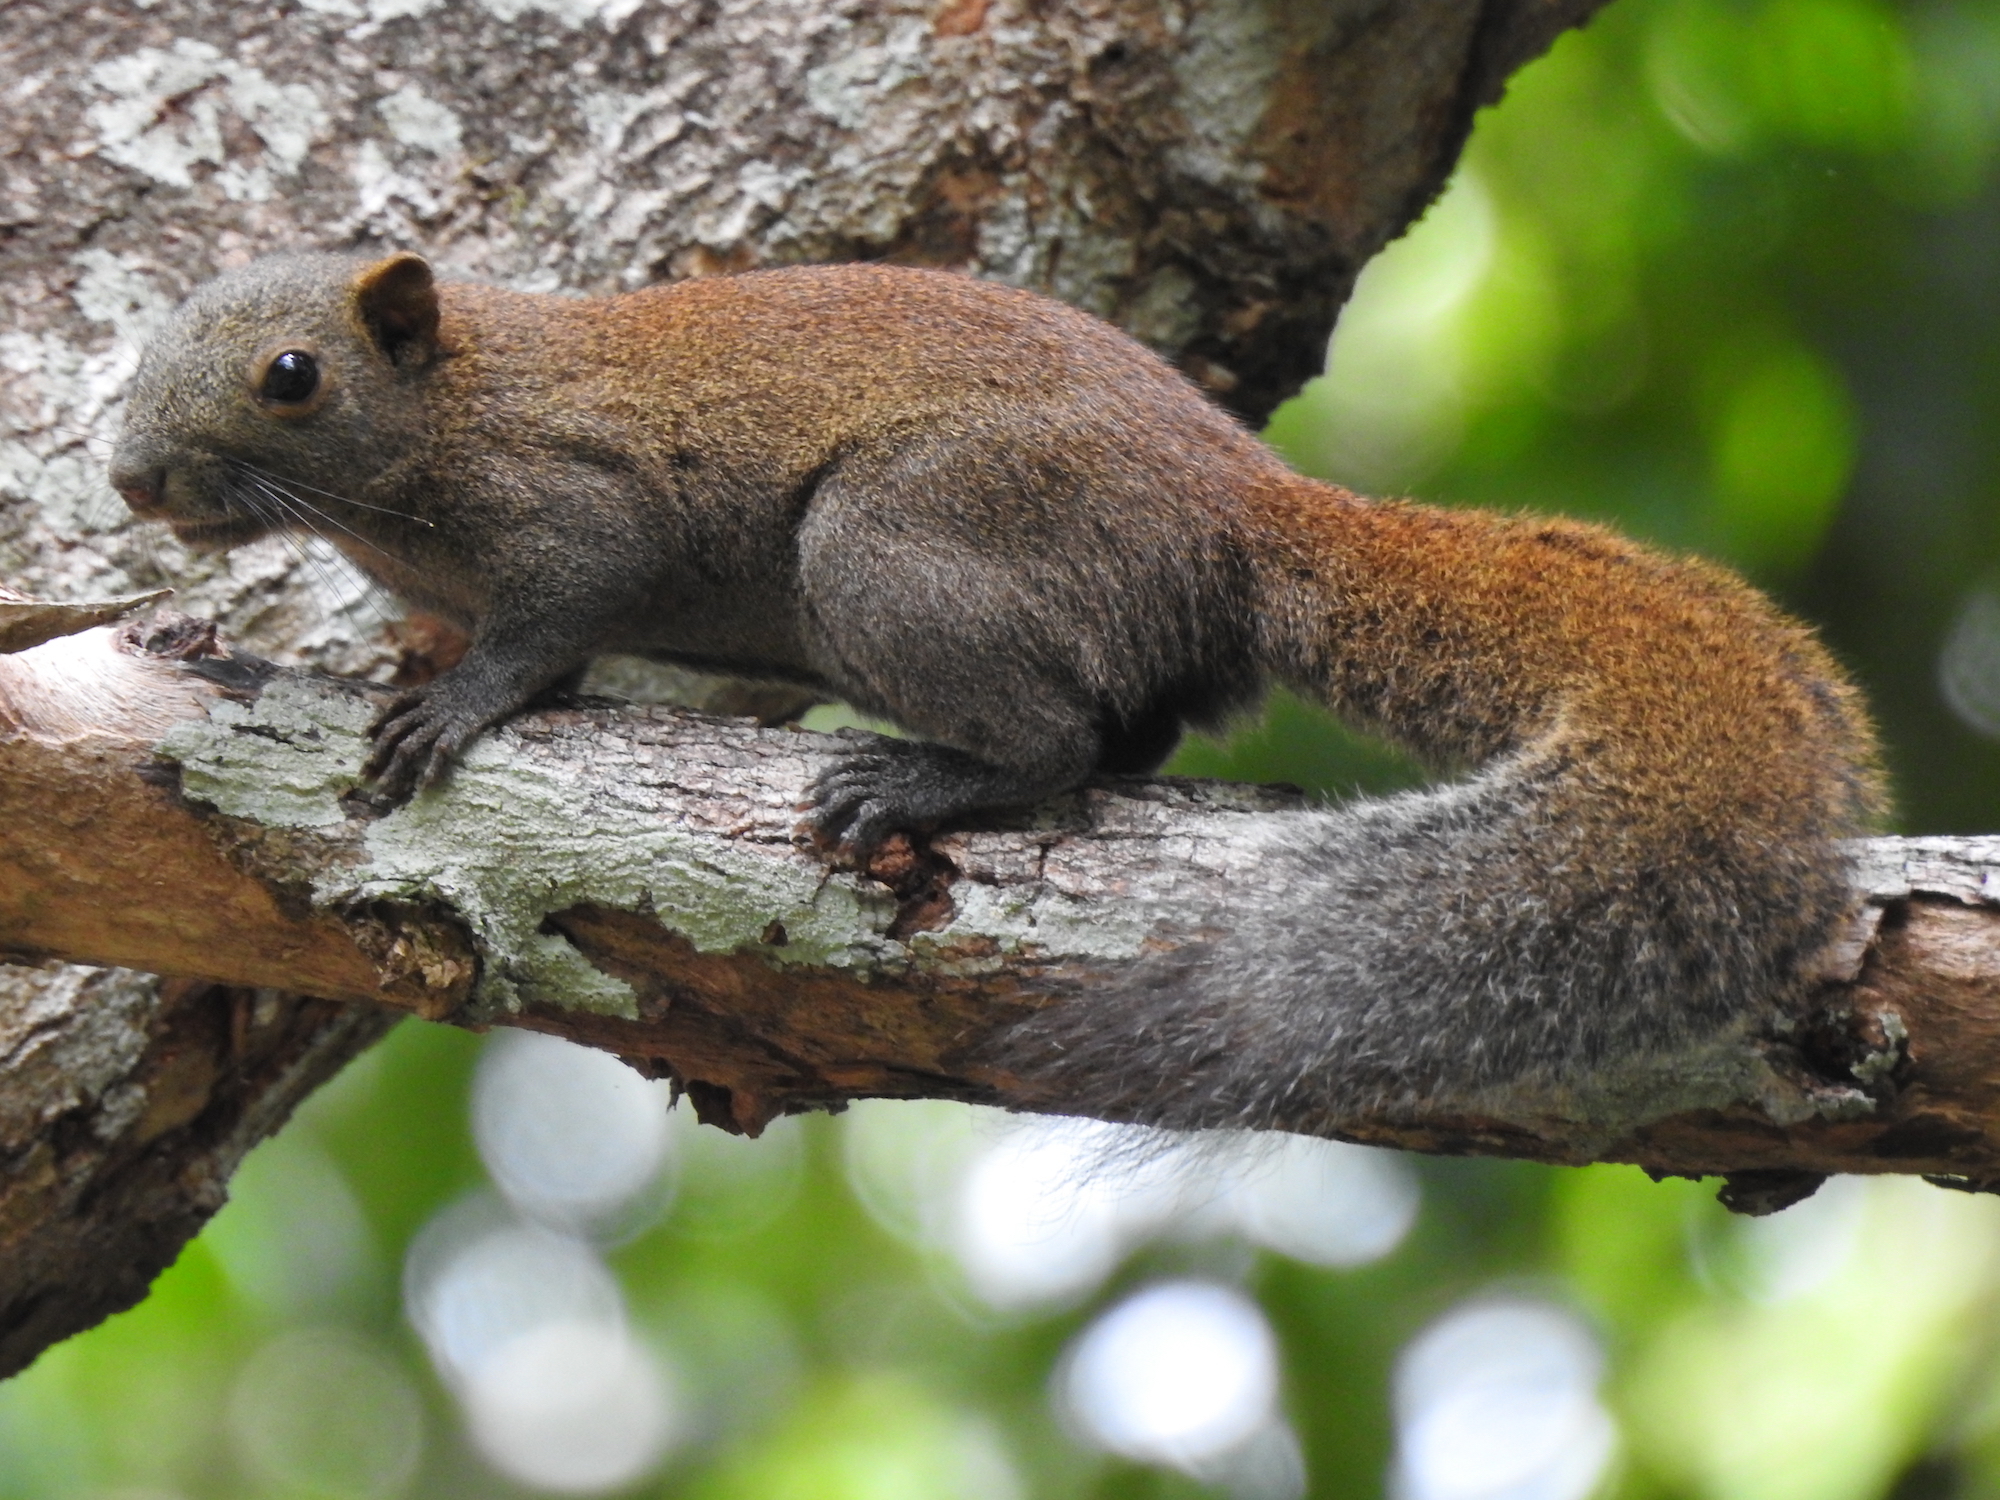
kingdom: Animalia
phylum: Chordata
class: Mammalia
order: Rodentia
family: Sciuridae
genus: Callosciurus
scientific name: Callosciurus caniceps
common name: Gray-bellied squirrel
